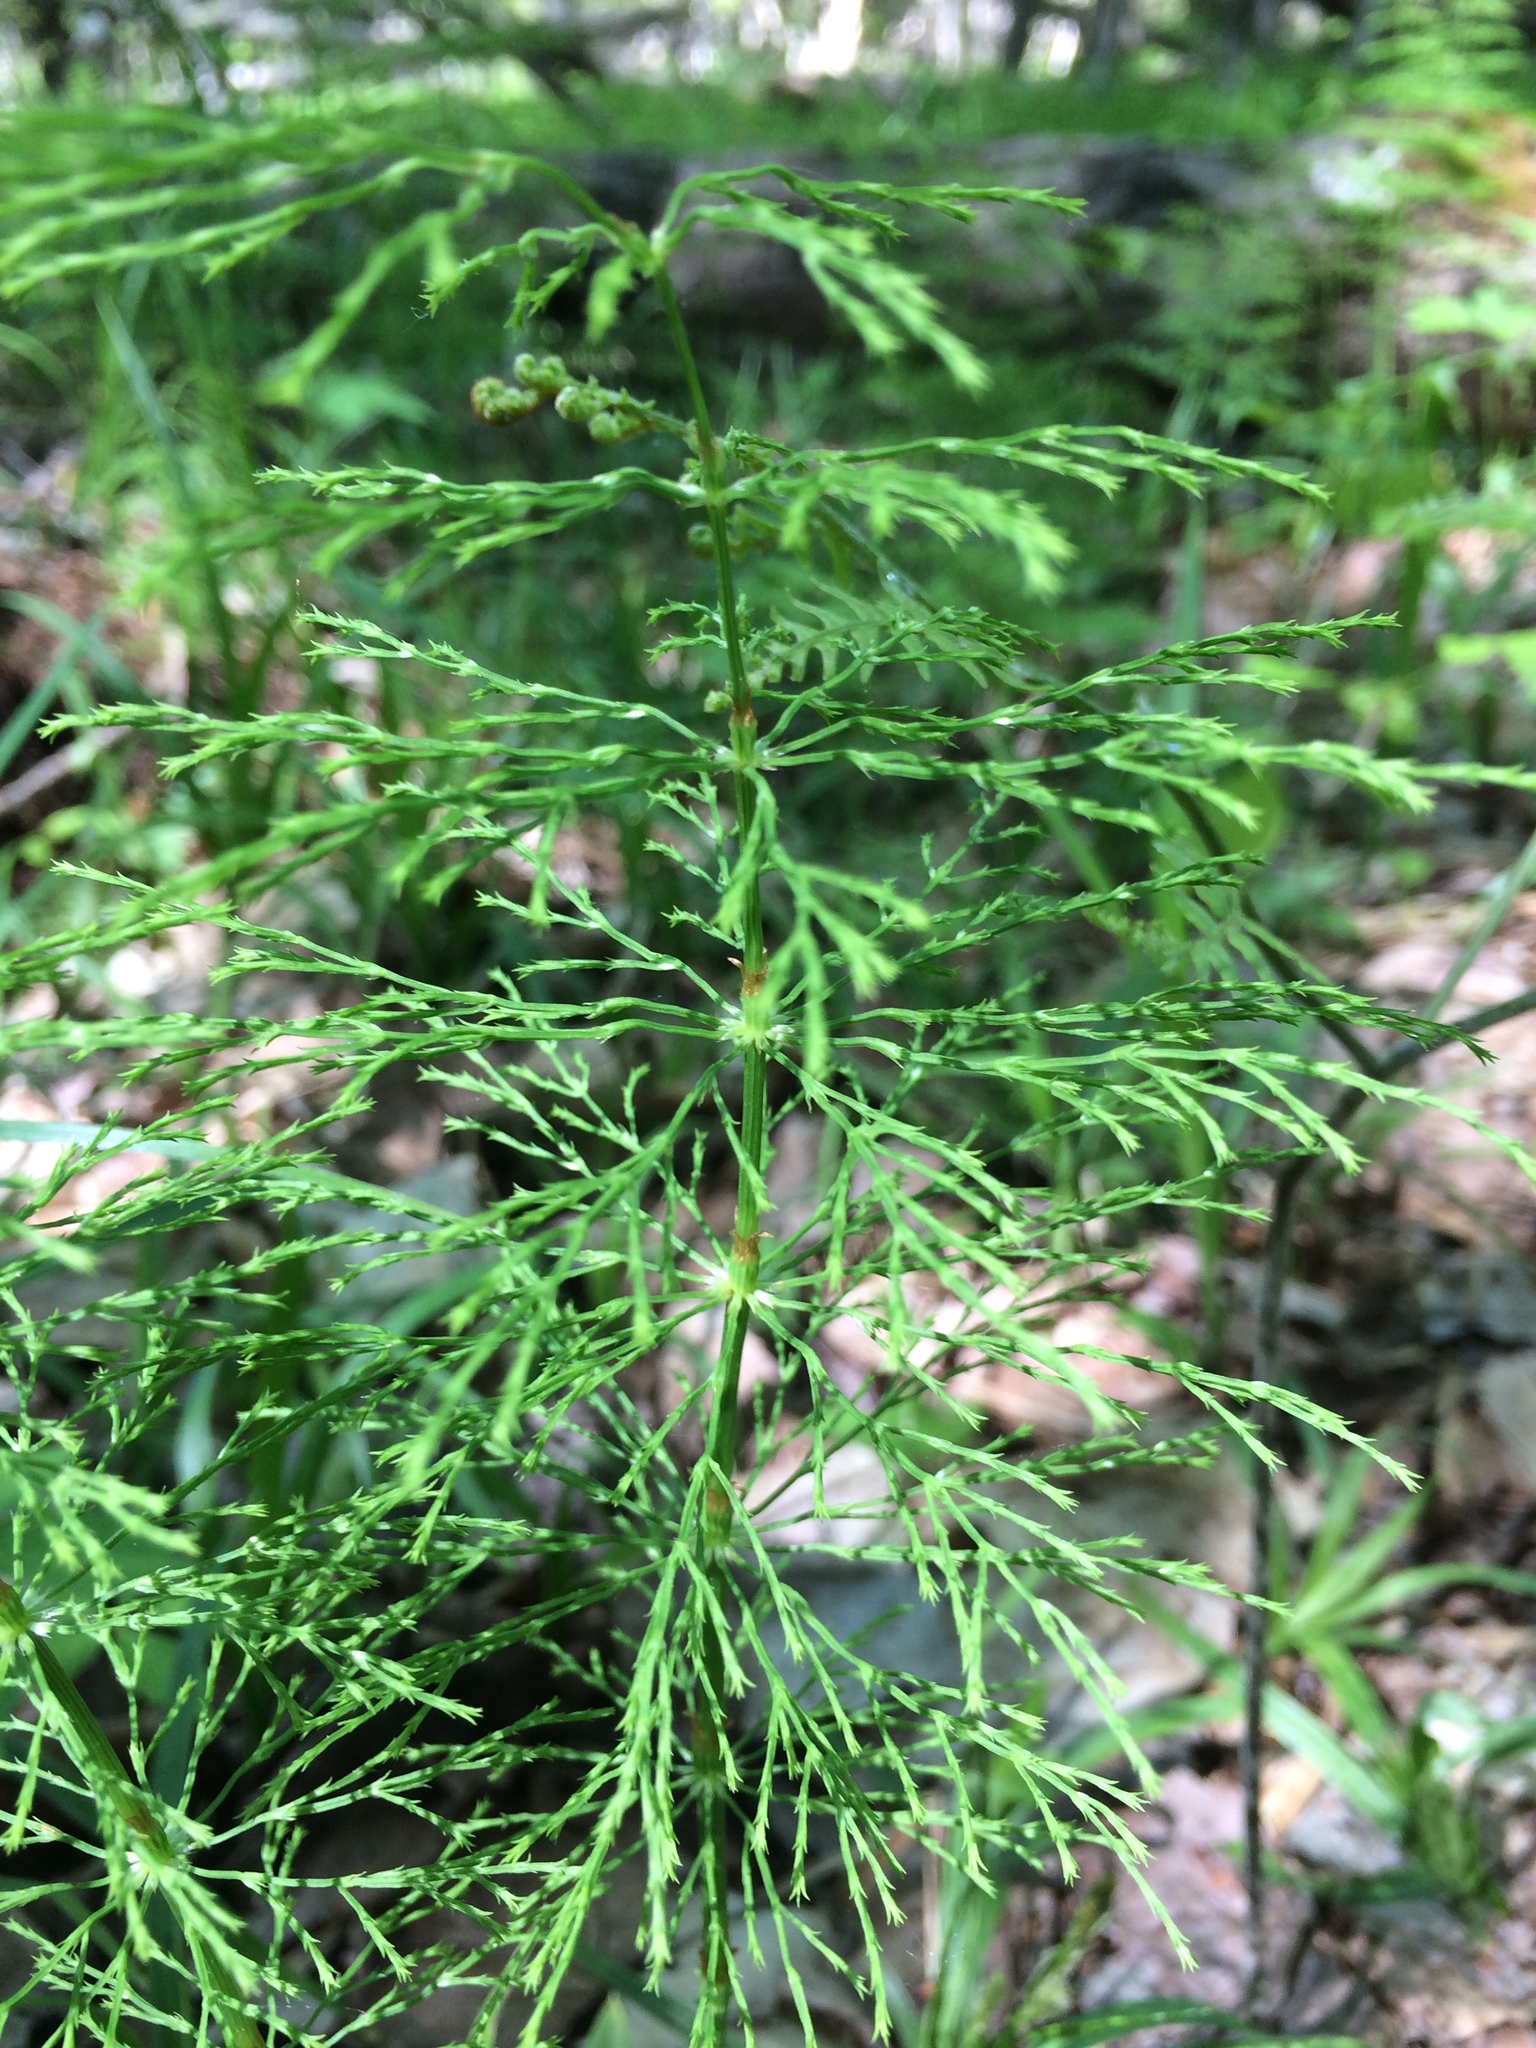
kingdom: Plantae
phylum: Tracheophyta
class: Polypodiopsida
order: Equisetales
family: Equisetaceae
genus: Equisetum
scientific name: Equisetum sylvaticum
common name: Wood horsetail
